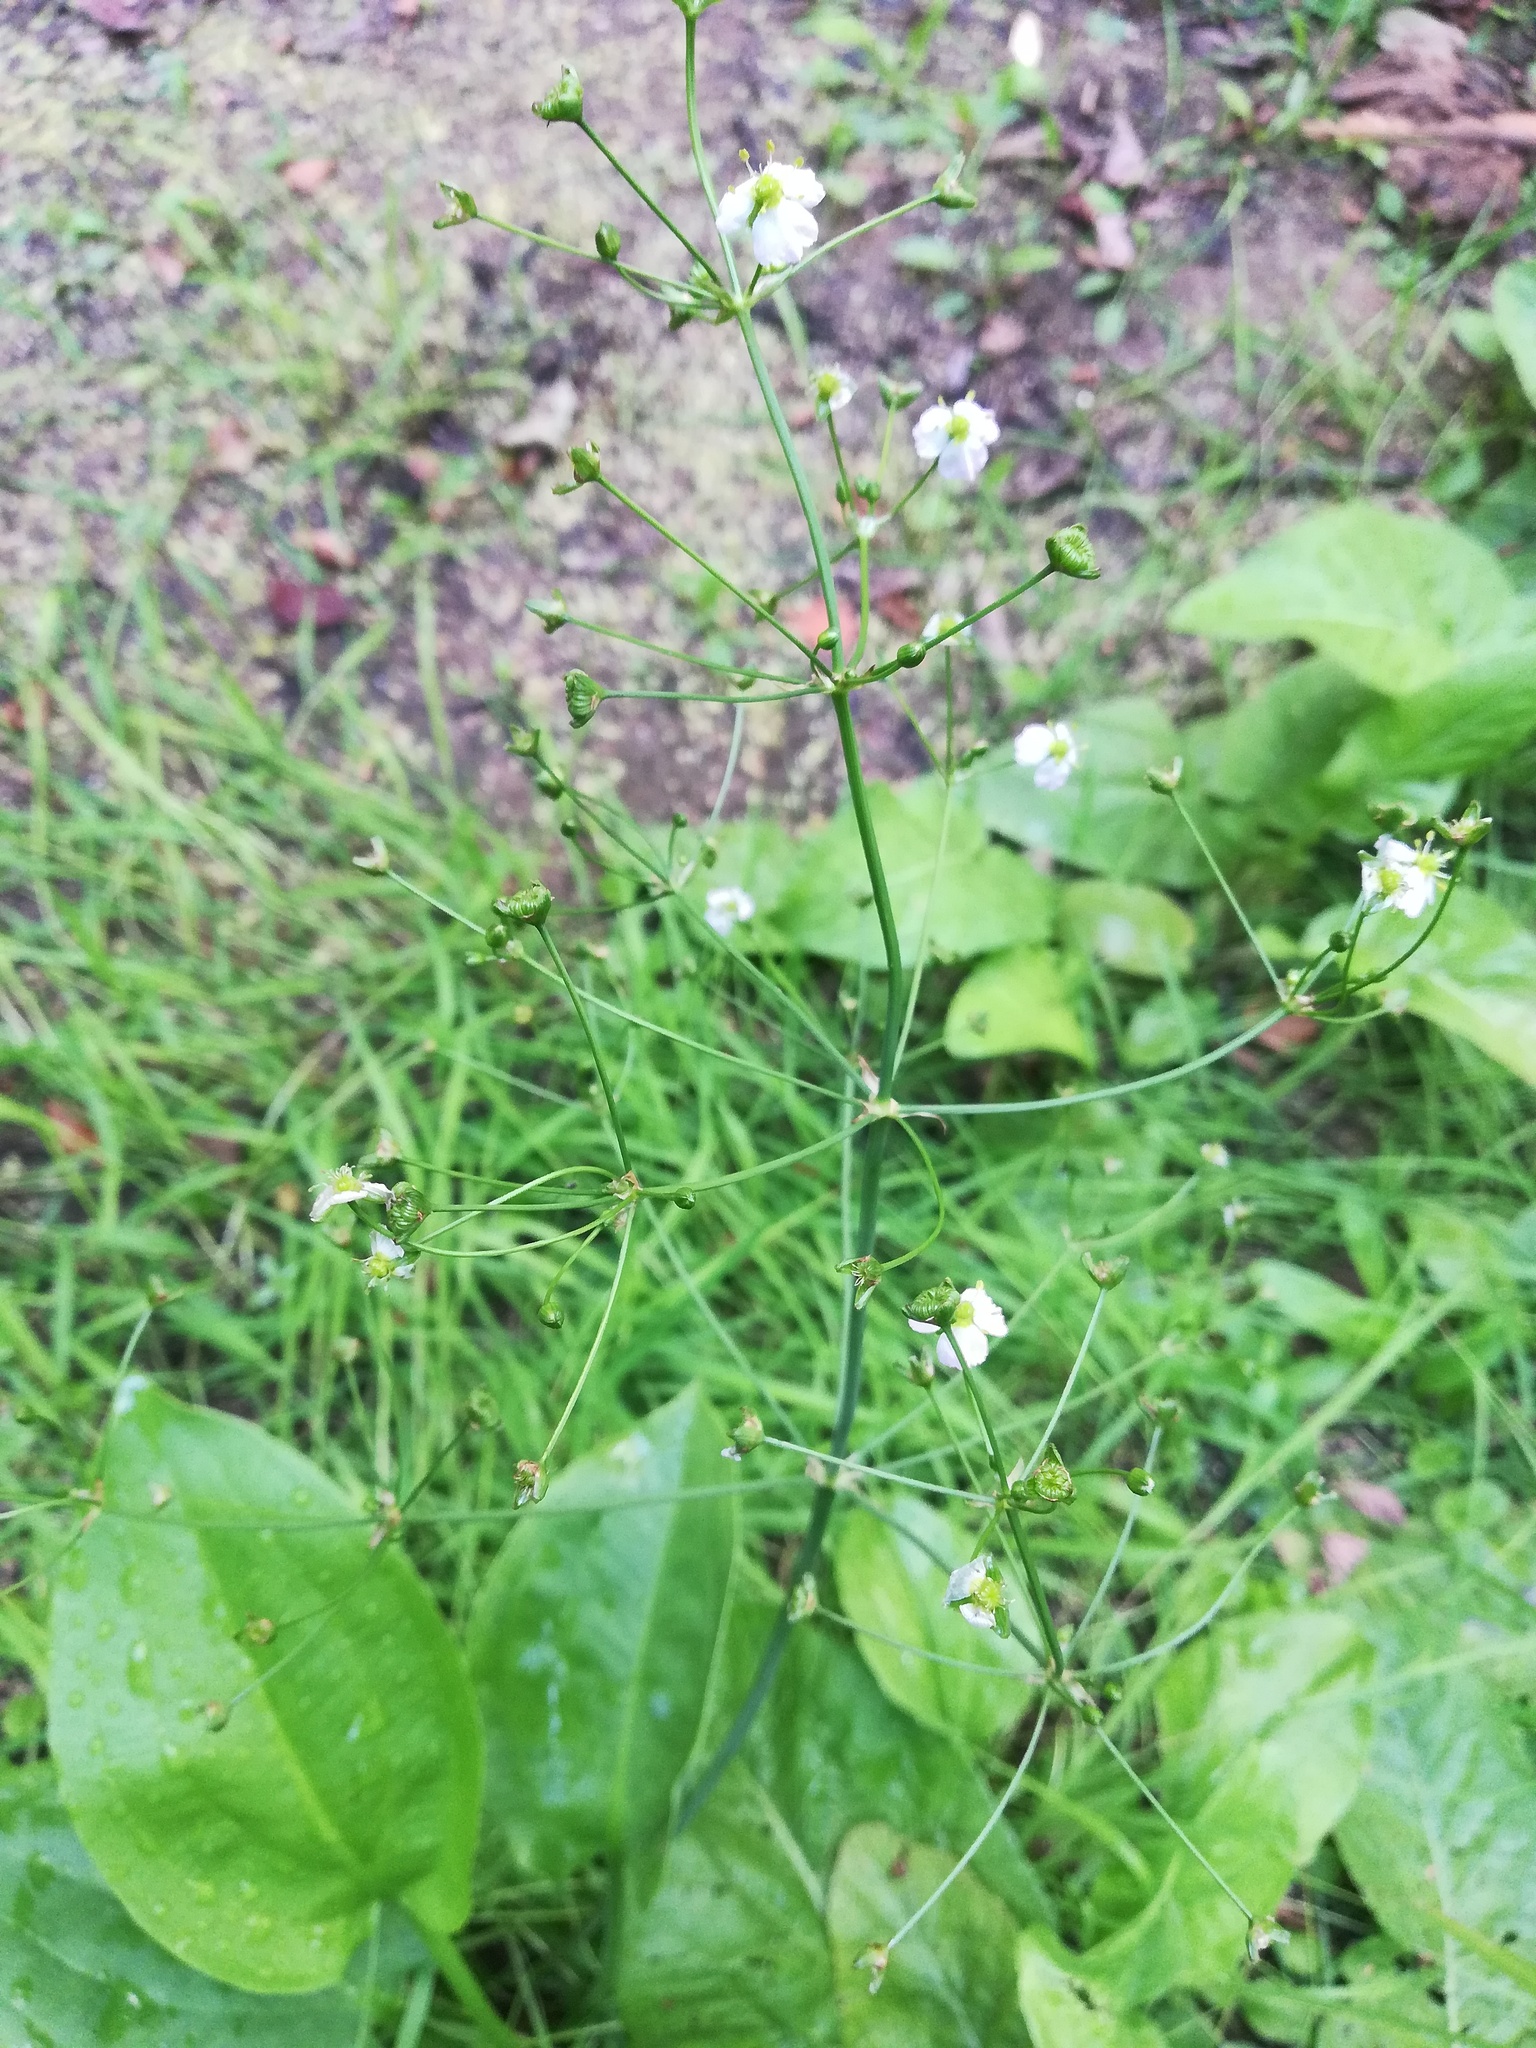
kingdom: Plantae
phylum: Tracheophyta
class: Liliopsida
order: Alismatales
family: Alismataceae
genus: Alisma
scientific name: Alisma plantago-aquatica
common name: Water-plantain
